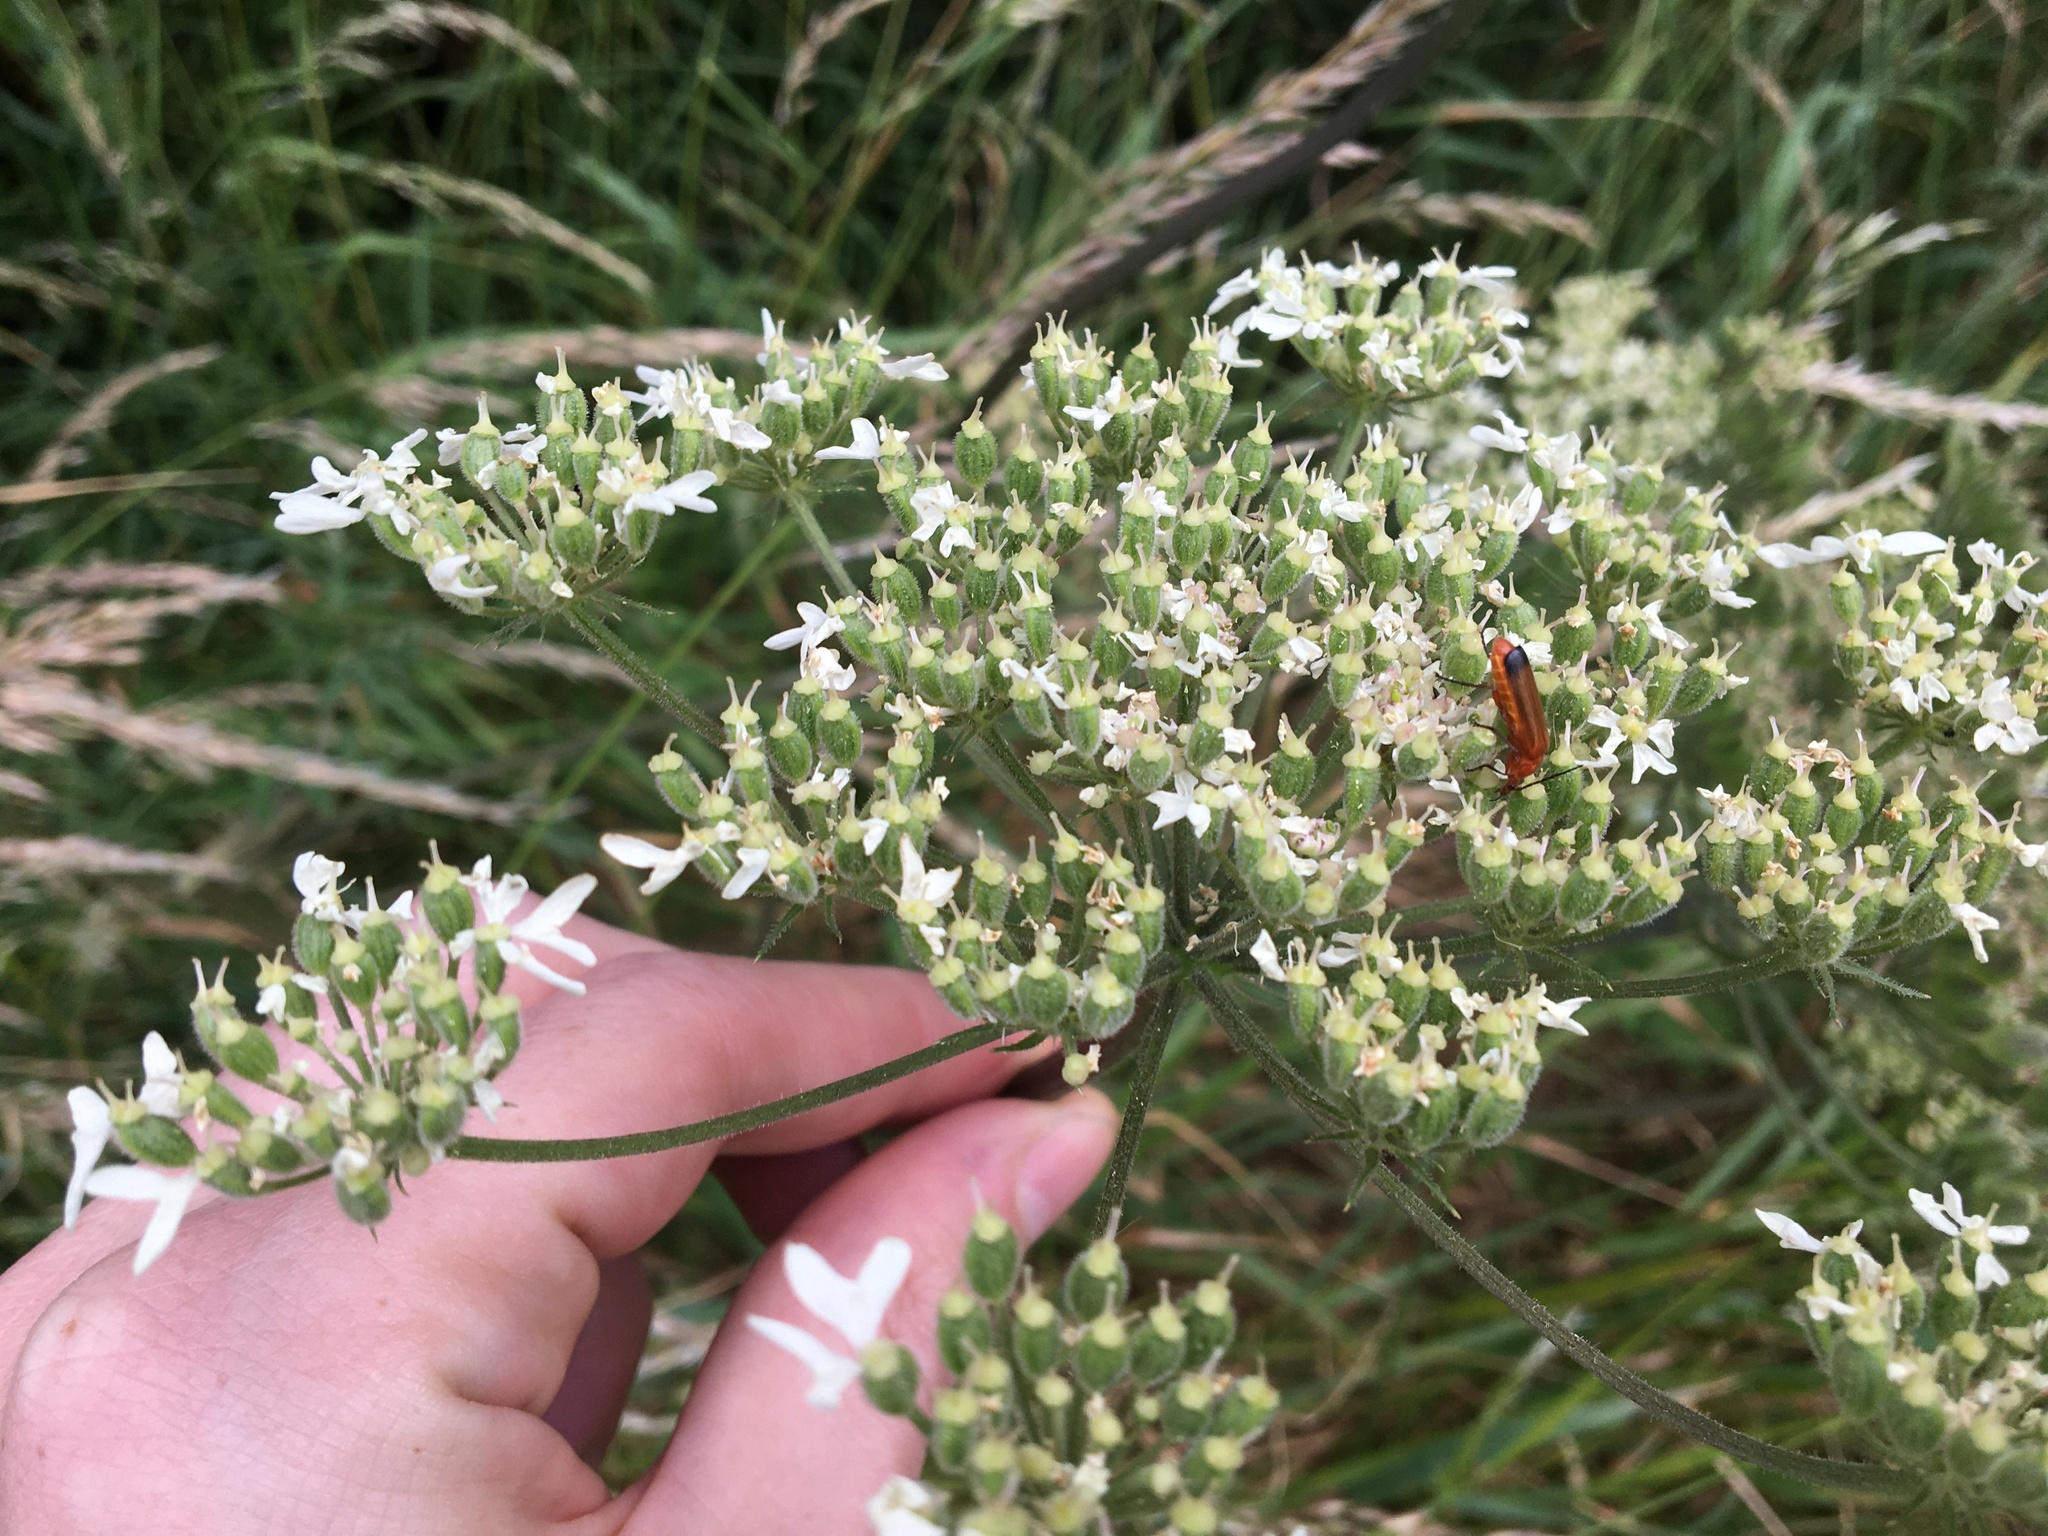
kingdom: Animalia
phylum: Arthropoda
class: Insecta
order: Coleoptera
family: Cantharidae
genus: Rhagonycha
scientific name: Rhagonycha fulva
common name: Common red soldier beetle
